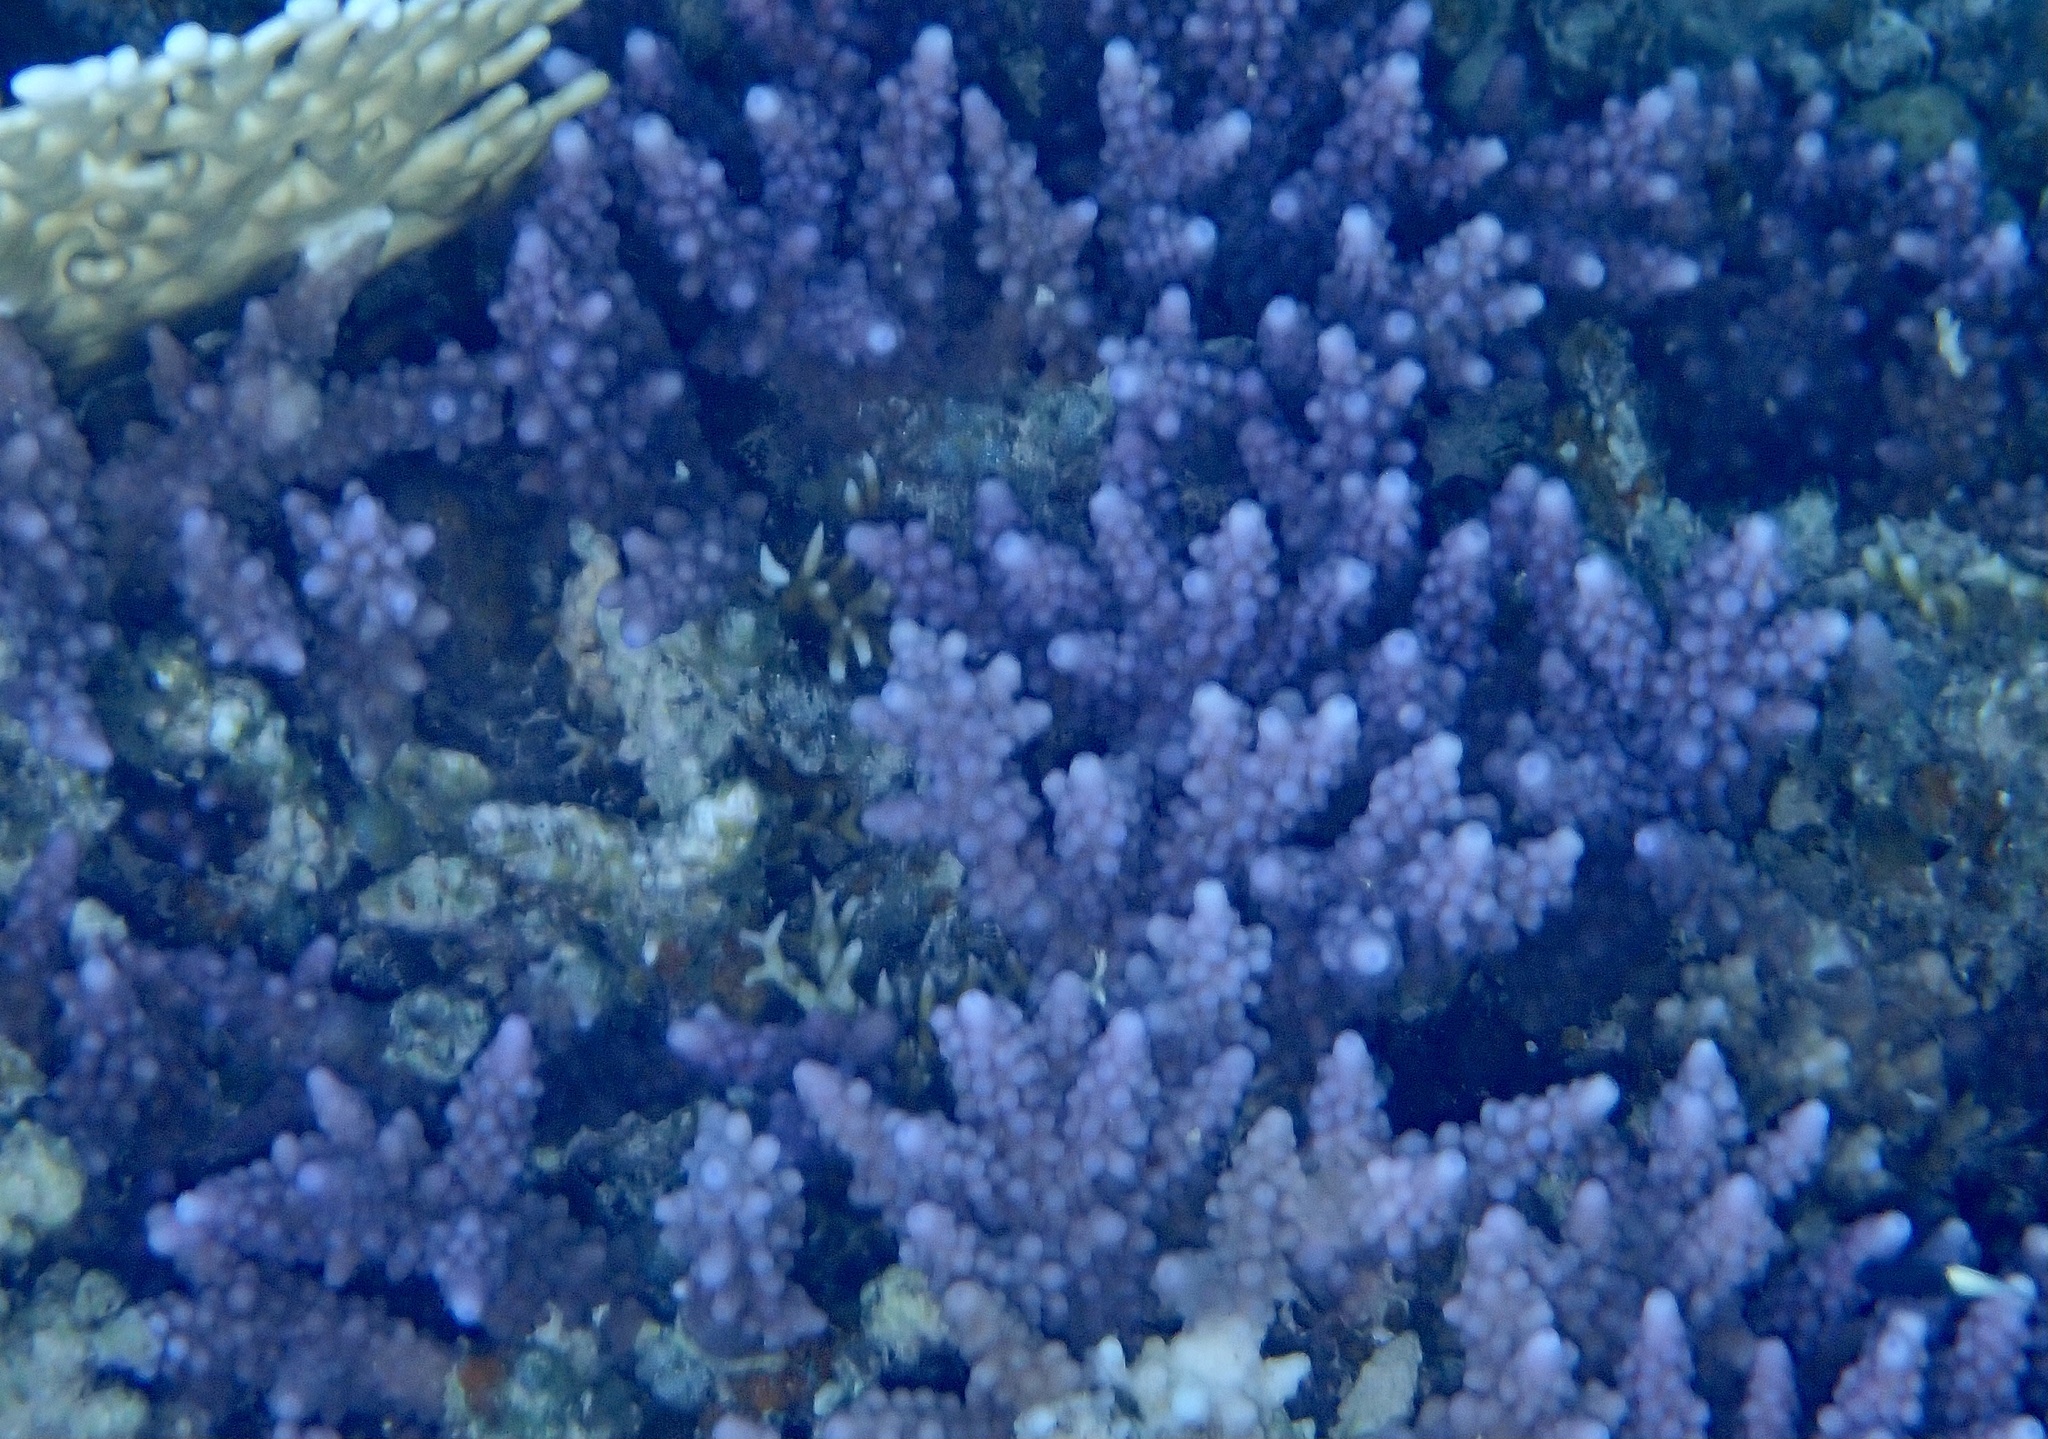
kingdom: Animalia
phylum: Cnidaria
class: Anthozoa
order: Scleractinia
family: Acroporidae
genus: Acropora
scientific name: Acropora hemprichii
